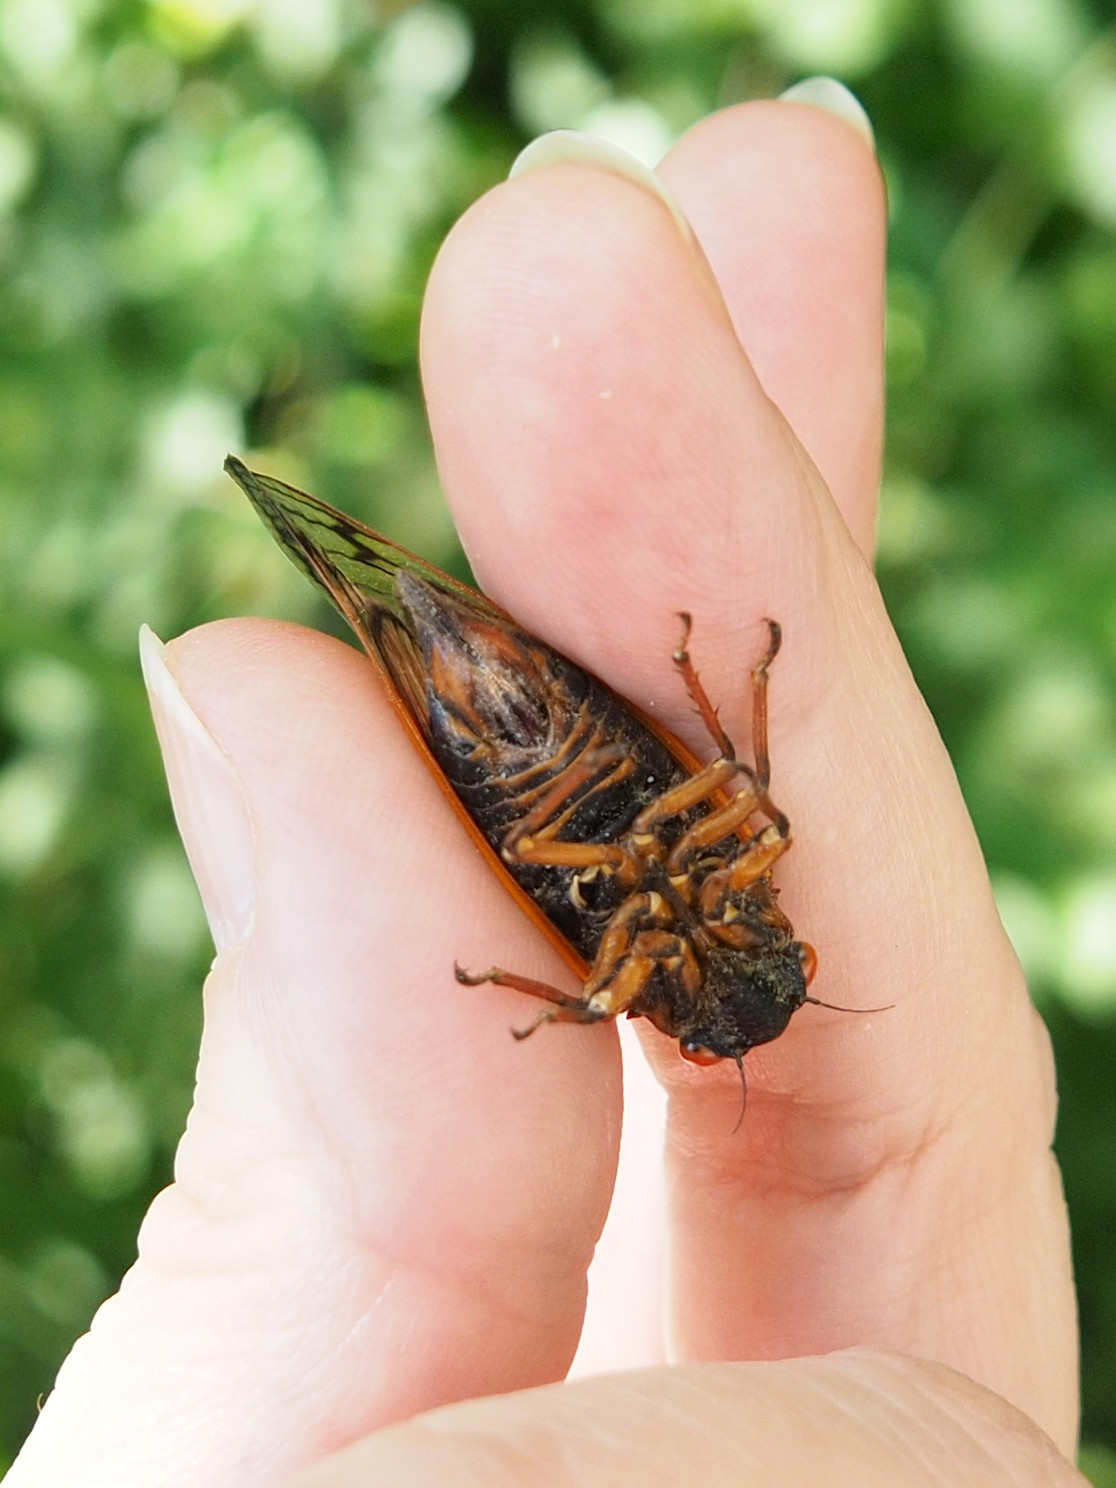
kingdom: Animalia
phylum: Arthropoda
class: Insecta
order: Hemiptera
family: Cicadidae
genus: Magicicada
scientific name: Magicicada septendecim
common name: Periodical cicada
